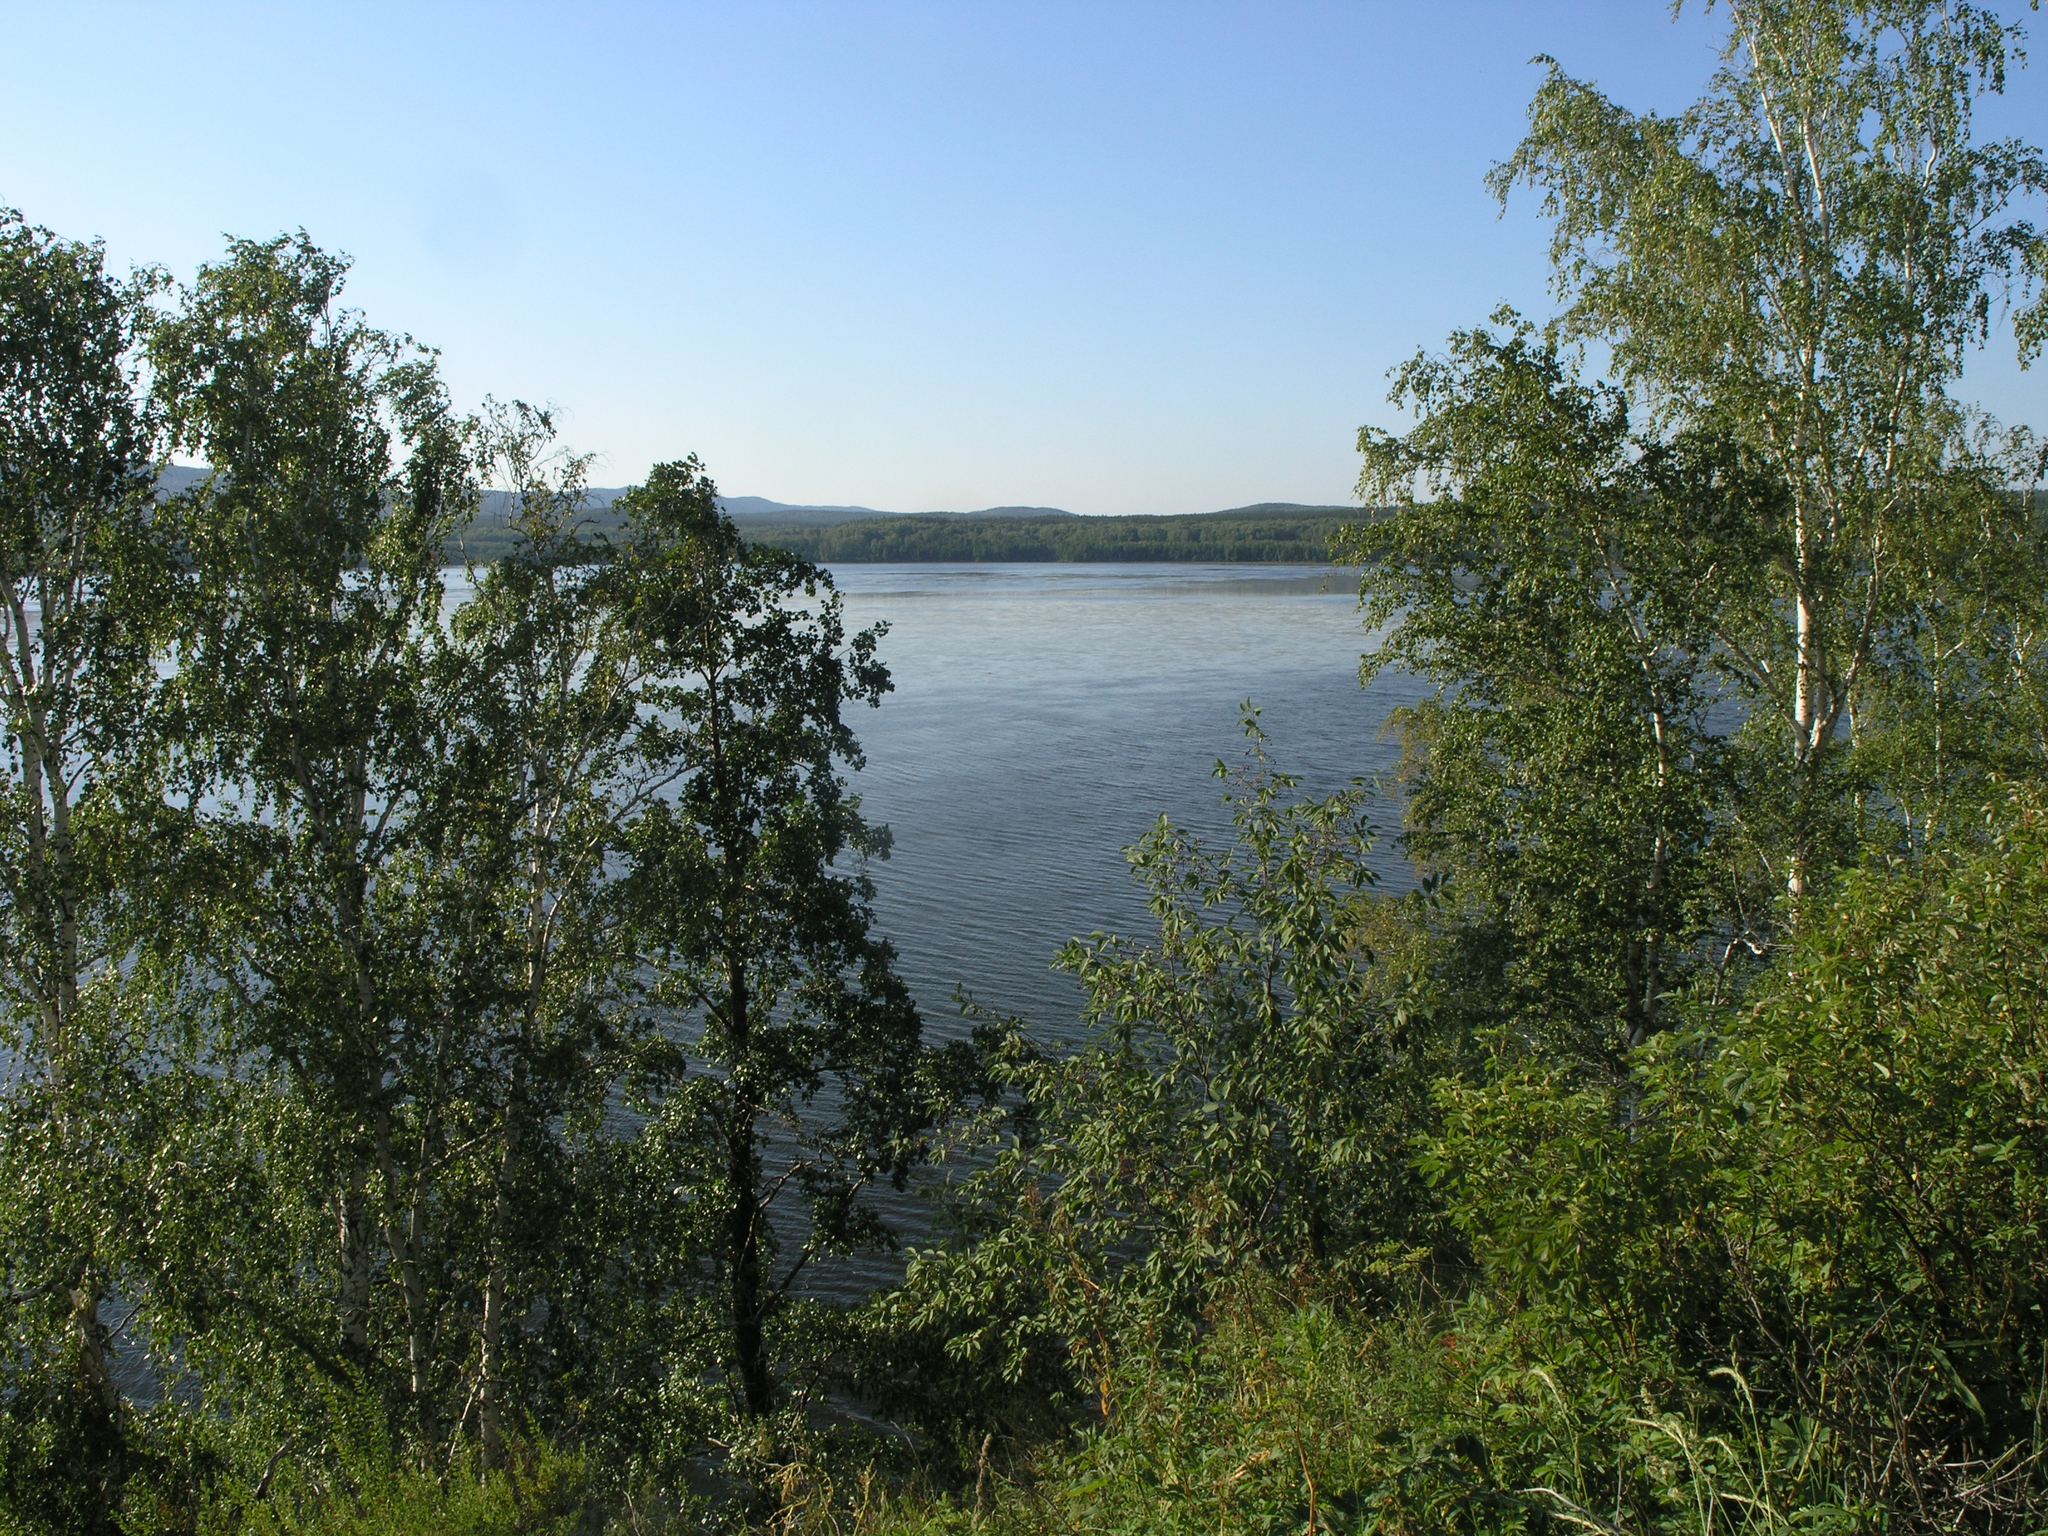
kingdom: Plantae
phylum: Tracheophyta
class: Magnoliopsida
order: Fagales
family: Betulaceae
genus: Betula
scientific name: Betula pendula
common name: Silver birch
